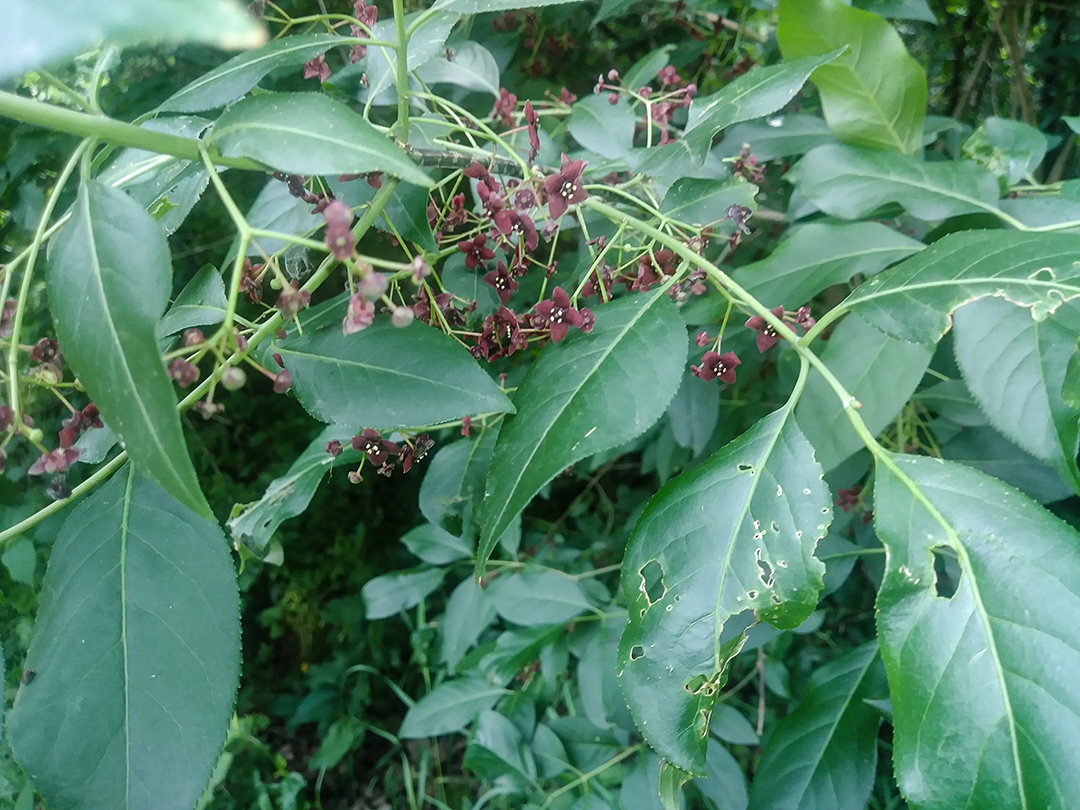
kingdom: Plantae
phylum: Tracheophyta
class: Magnoliopsida
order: Celastrales
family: Celastraceae
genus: Euonymus
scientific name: Euonymus atropurpureus
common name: Eastern wahoo
